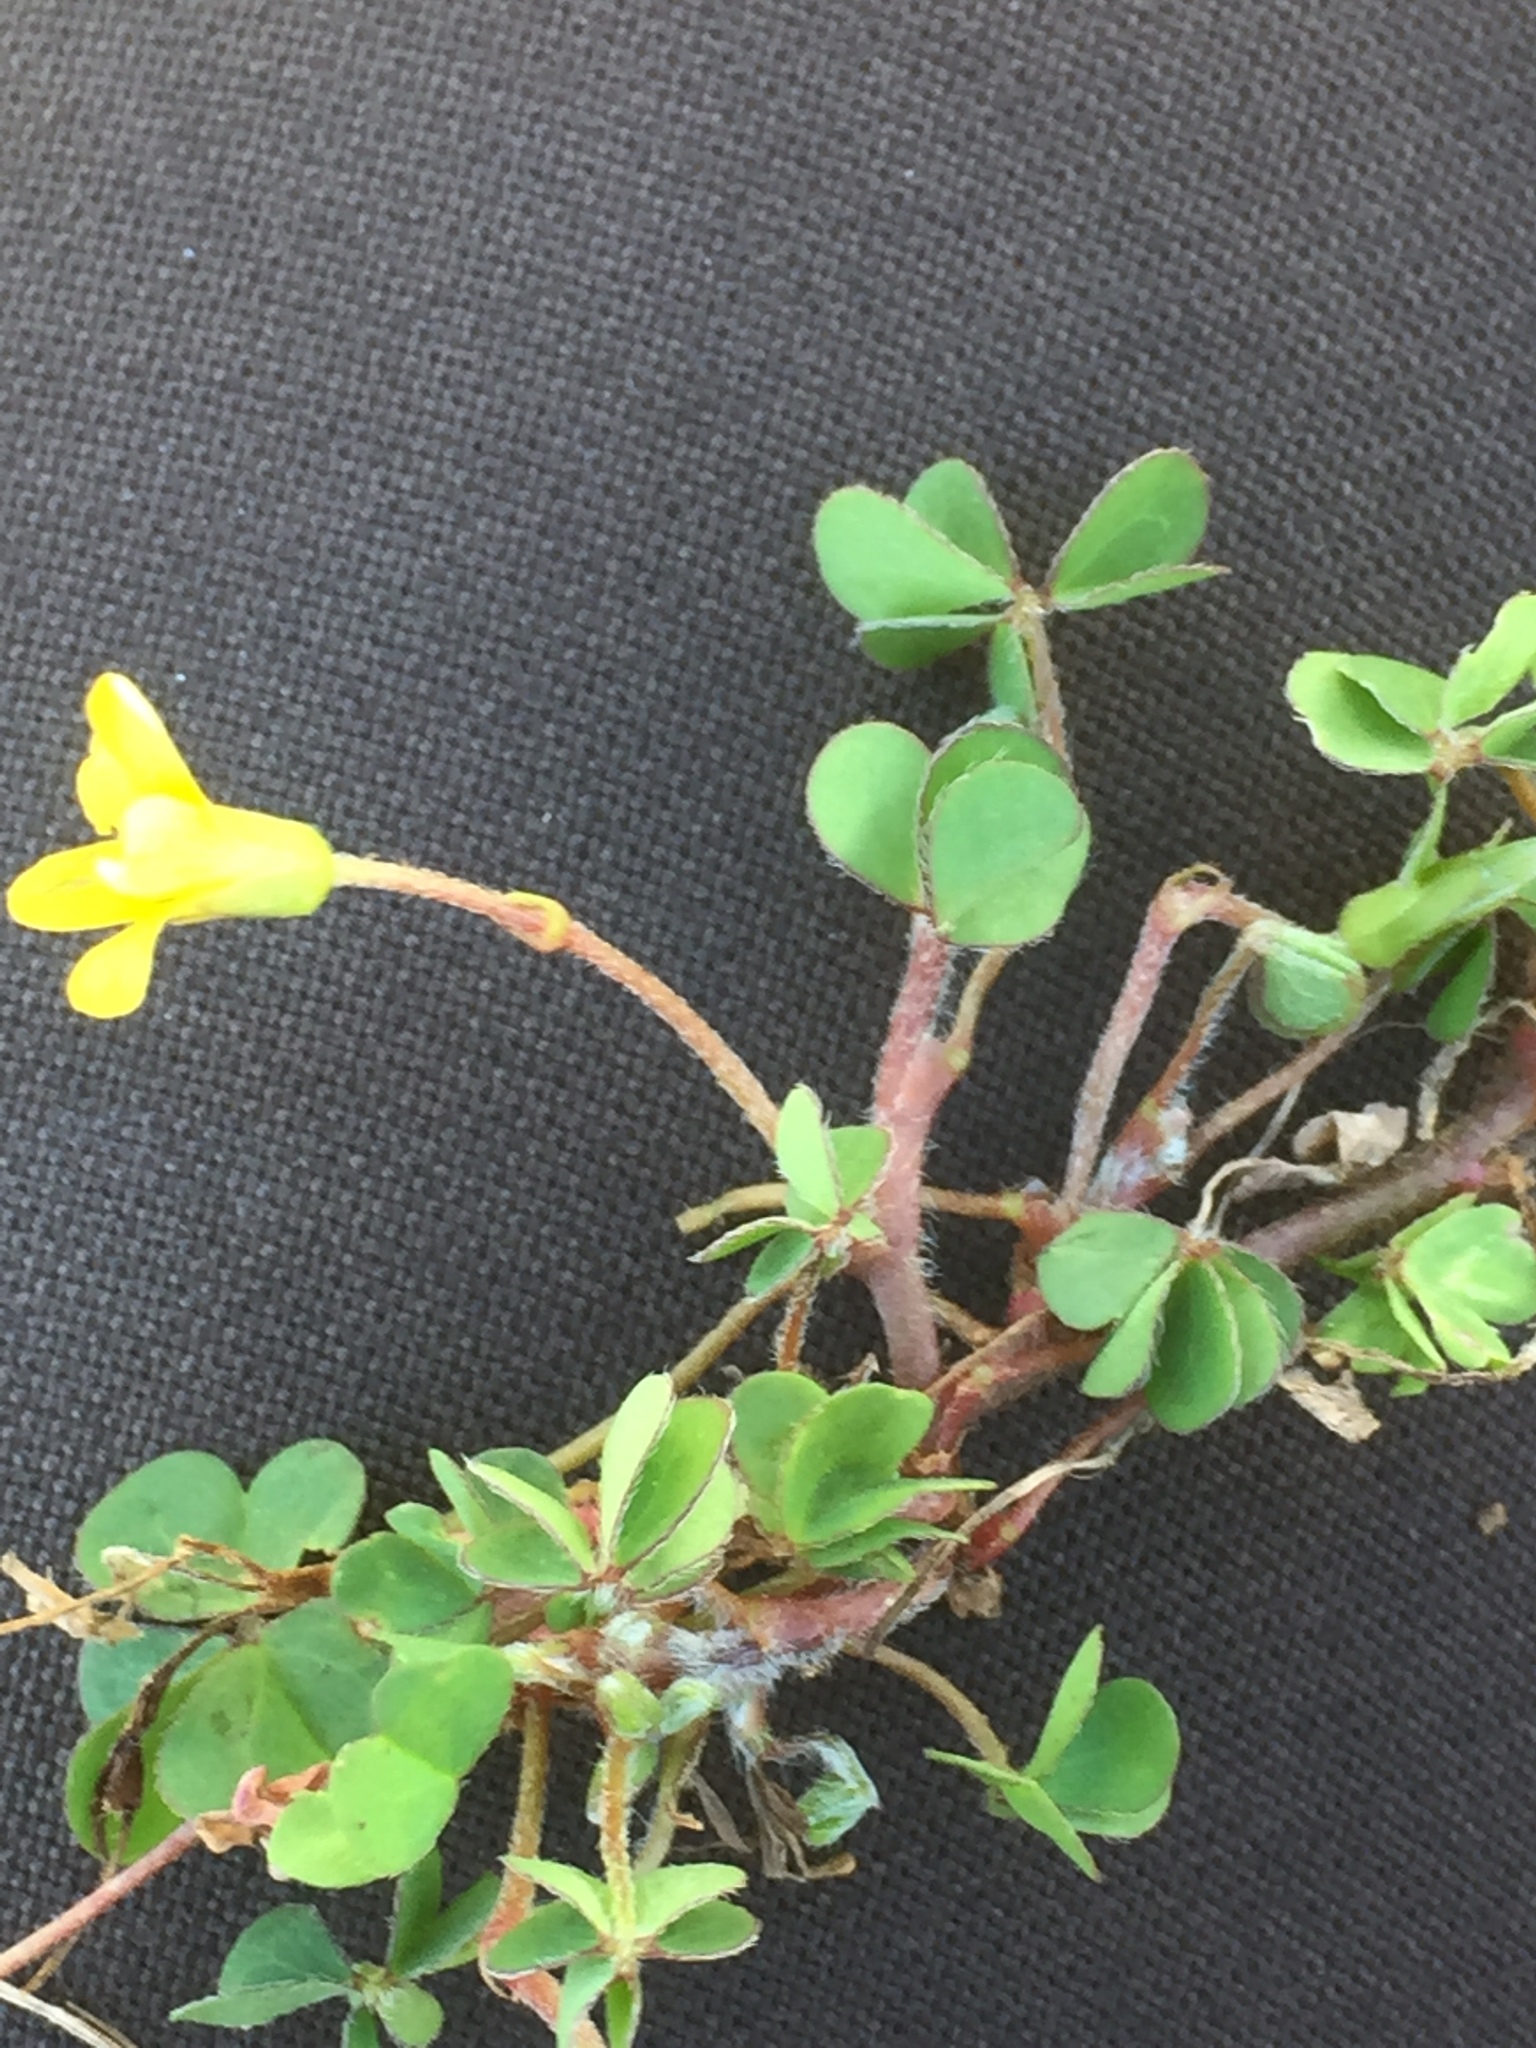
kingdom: Plantae
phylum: Tracheophyta
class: Magnoliopsida
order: Oxalidales
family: Oxalidaceae
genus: Oxalis
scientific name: Oxalis corniculata
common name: Procumbent yellow-sorrel
